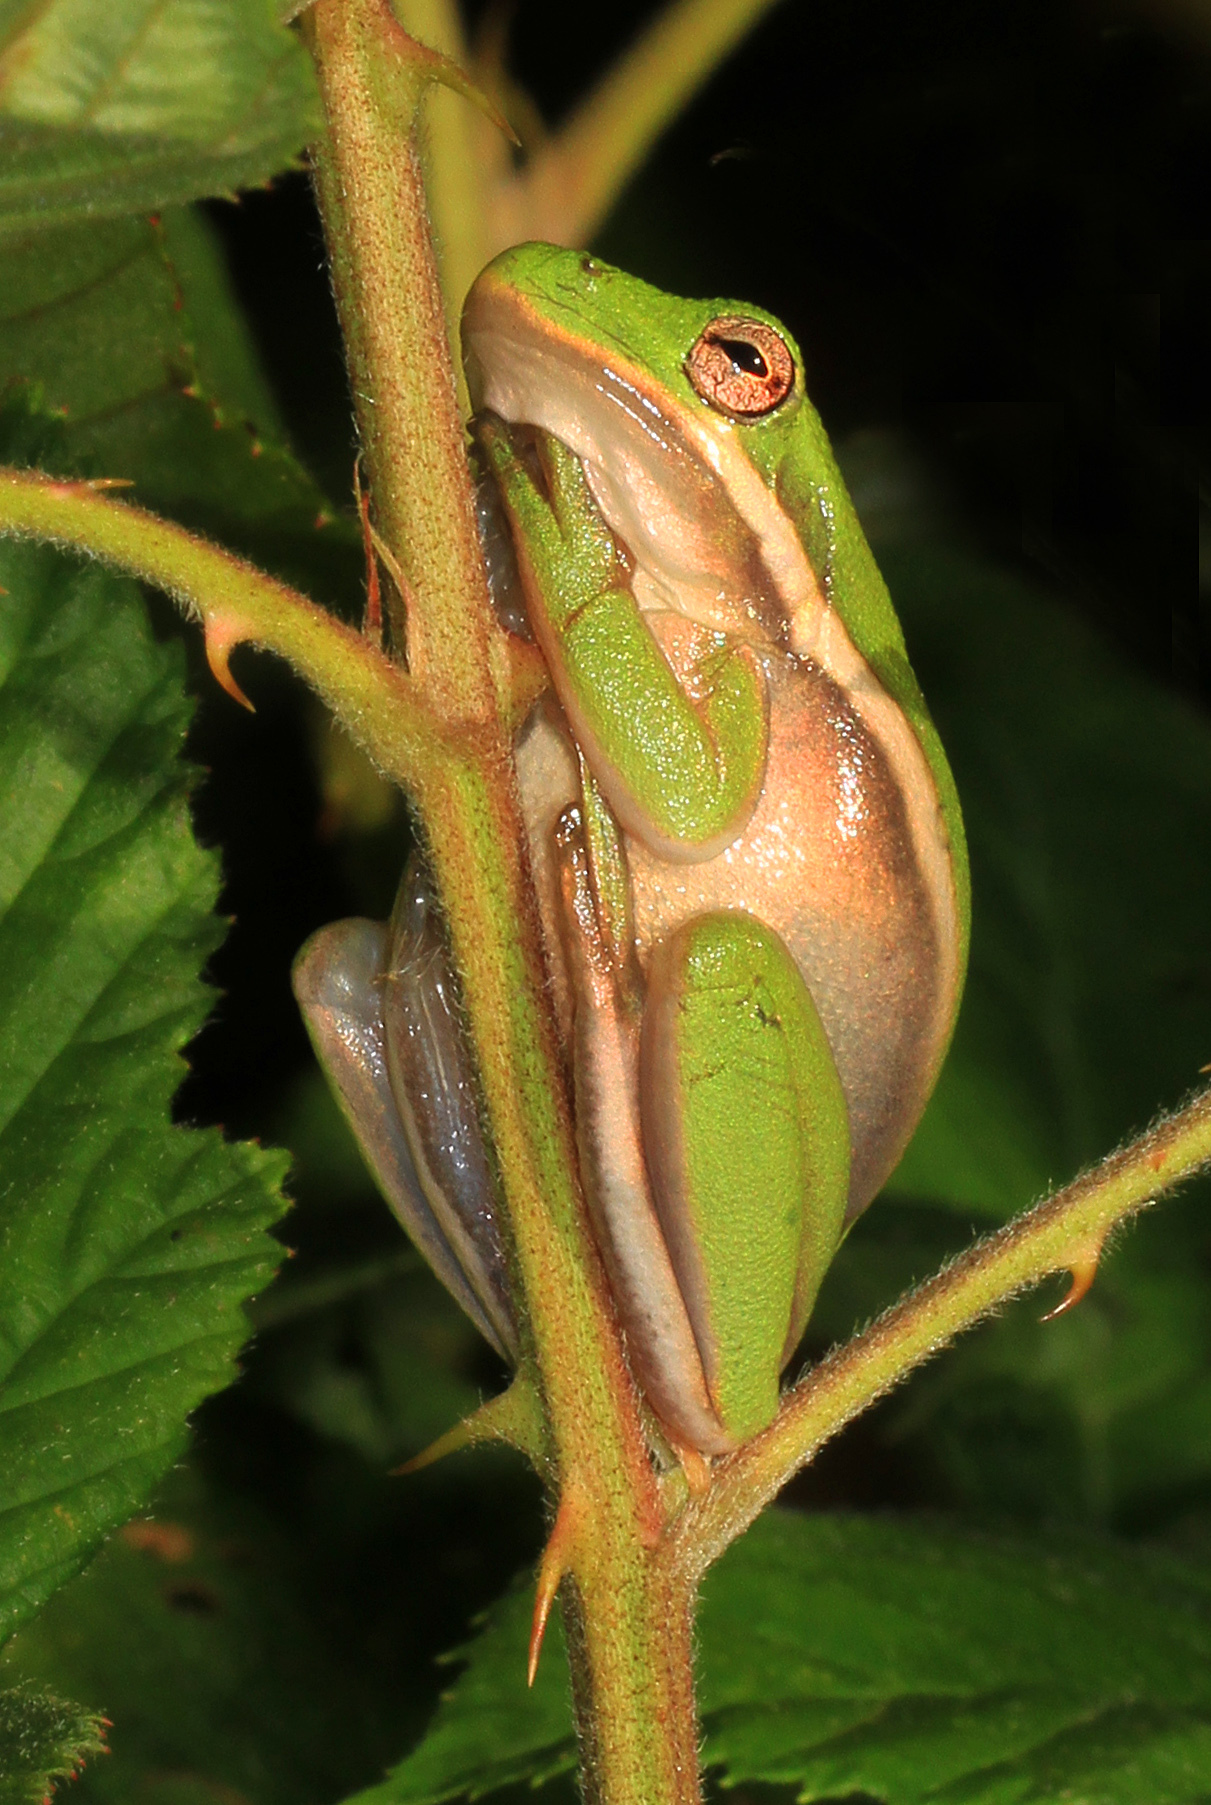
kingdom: Animalia
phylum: Chordata
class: Amphibia
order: Anura
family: Hylidae
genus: Dryophytes
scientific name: Dryophytes cinereus
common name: Green treefrog
